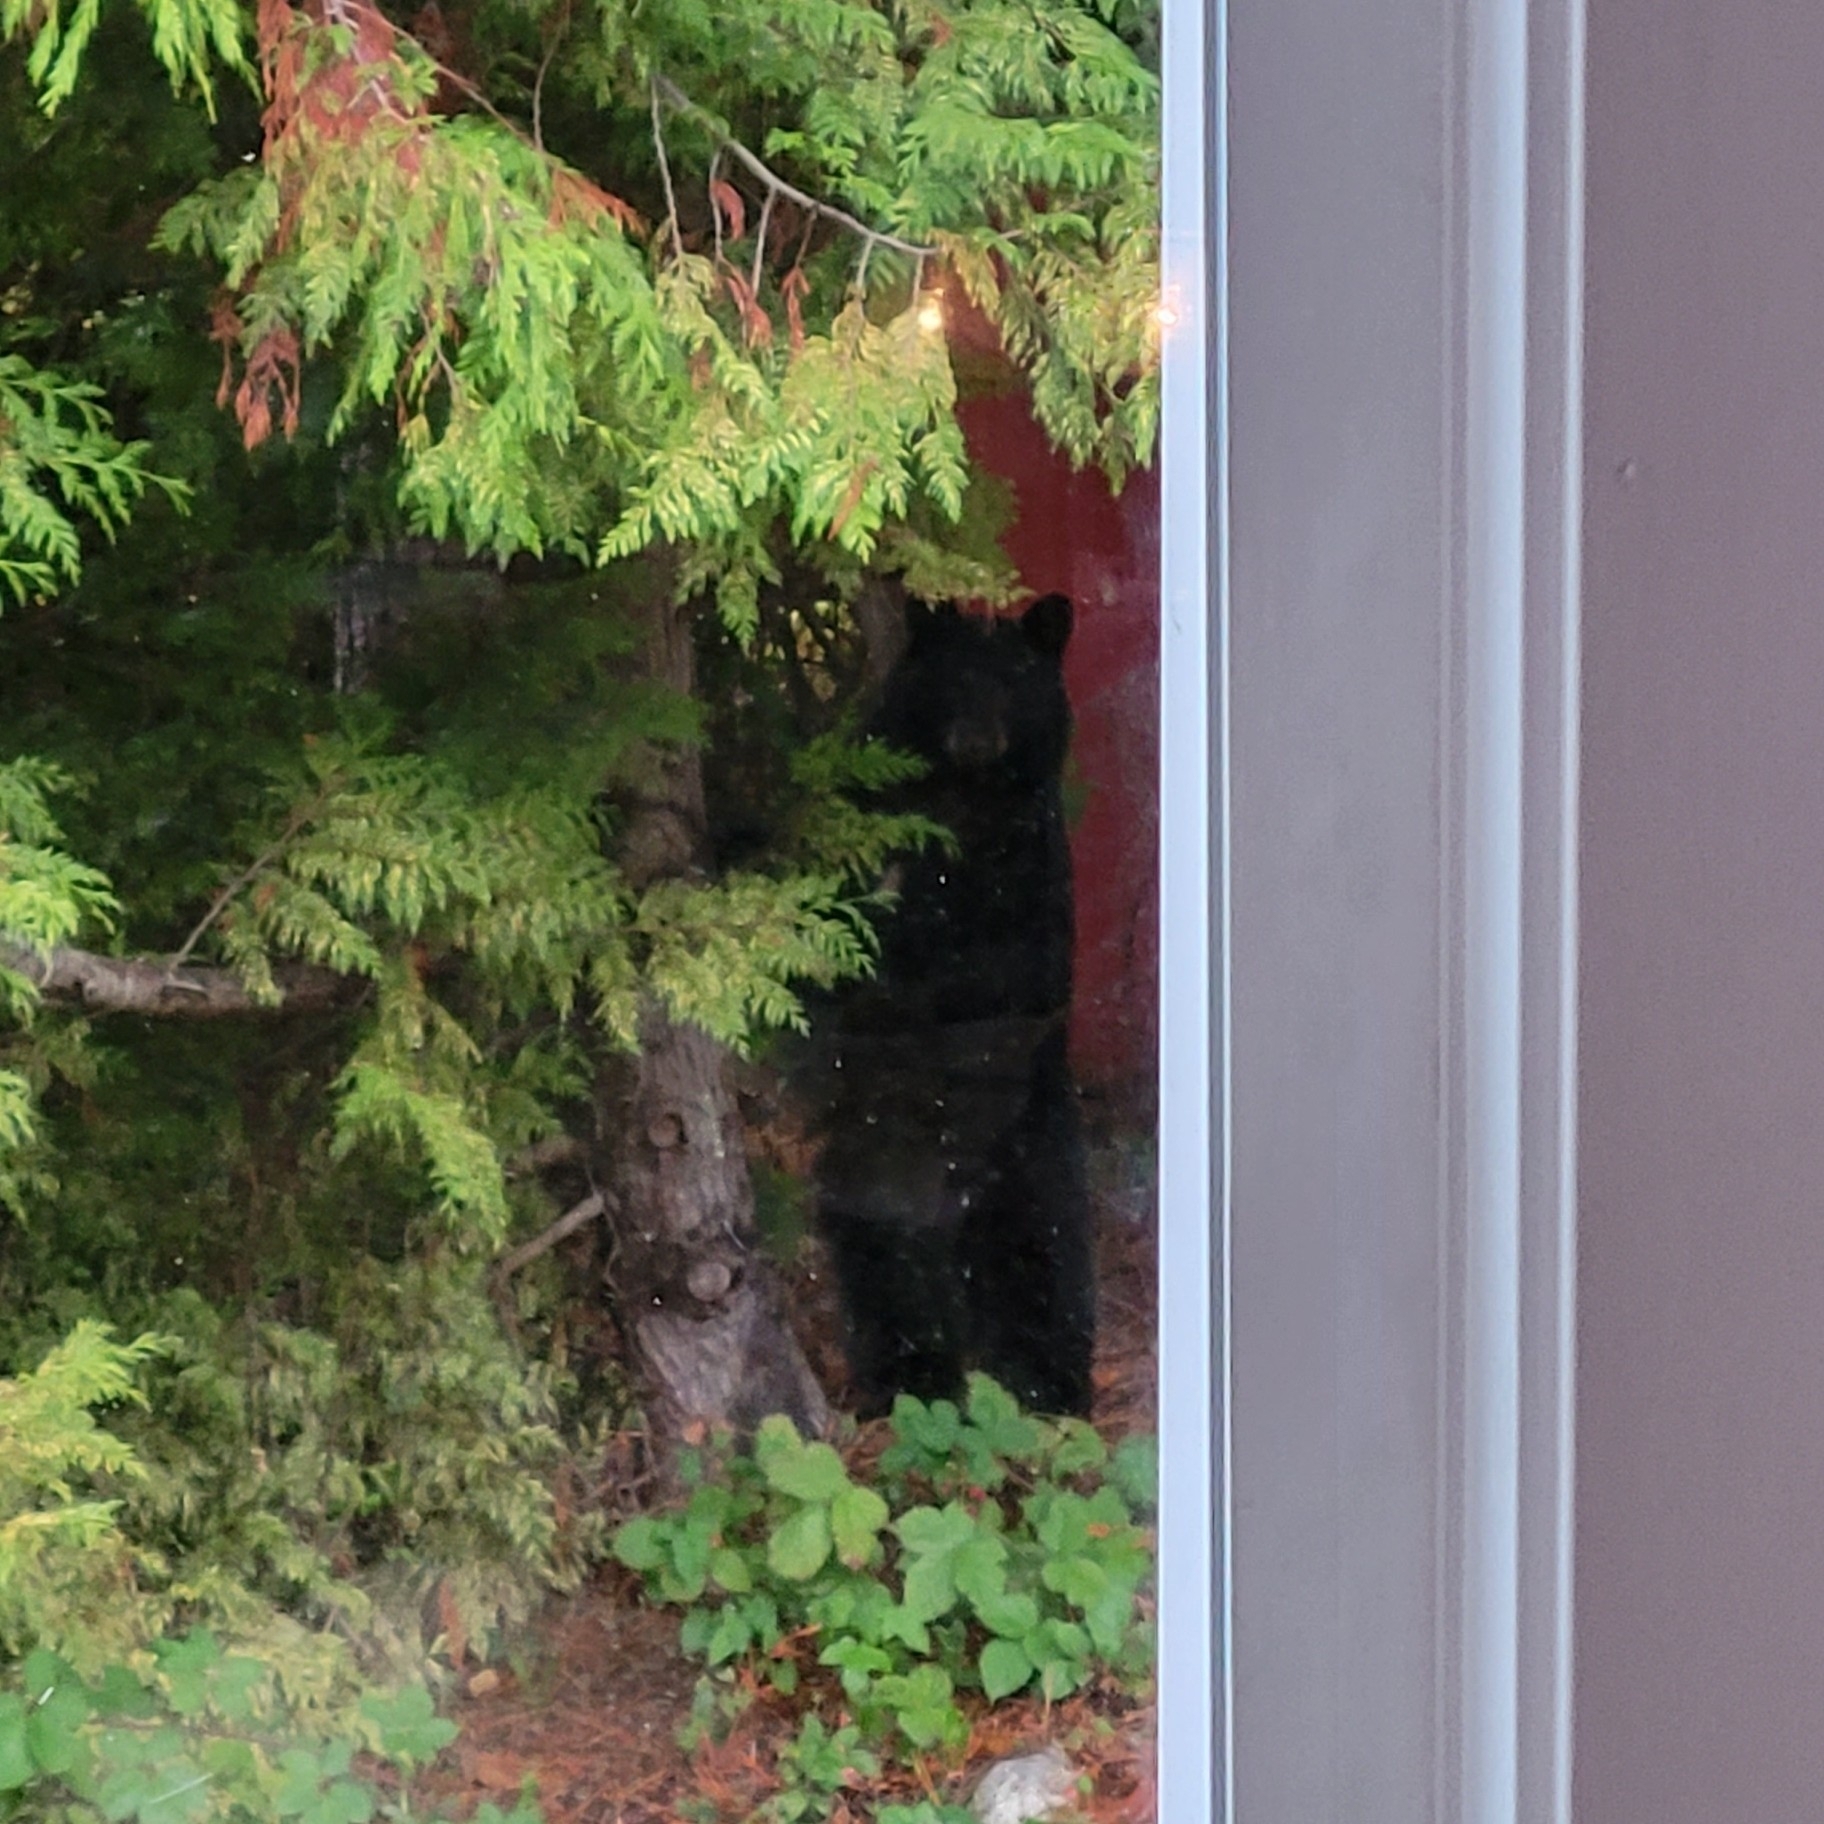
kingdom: Animalia
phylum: Chordata
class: Mammalia
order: Carnivora
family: Ursidae
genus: Ursus
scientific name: Ursus americanus
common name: American black bear
